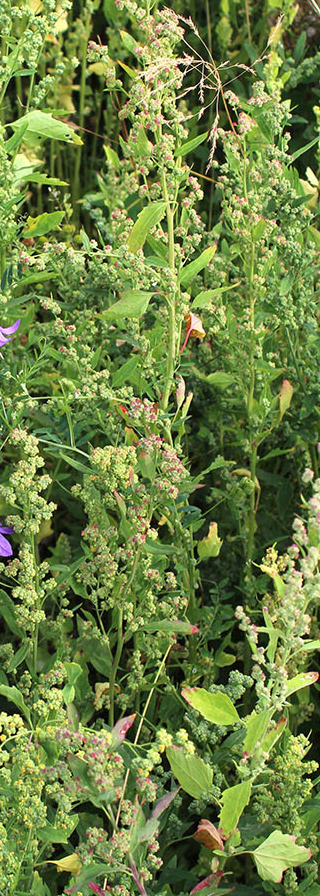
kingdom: Plantae
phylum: Tracheophyta
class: Magnoliopsida
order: Caryophyllales
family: Amaranthaceae
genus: Chenopodium
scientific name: Chenopodium album
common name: Fat-hen
